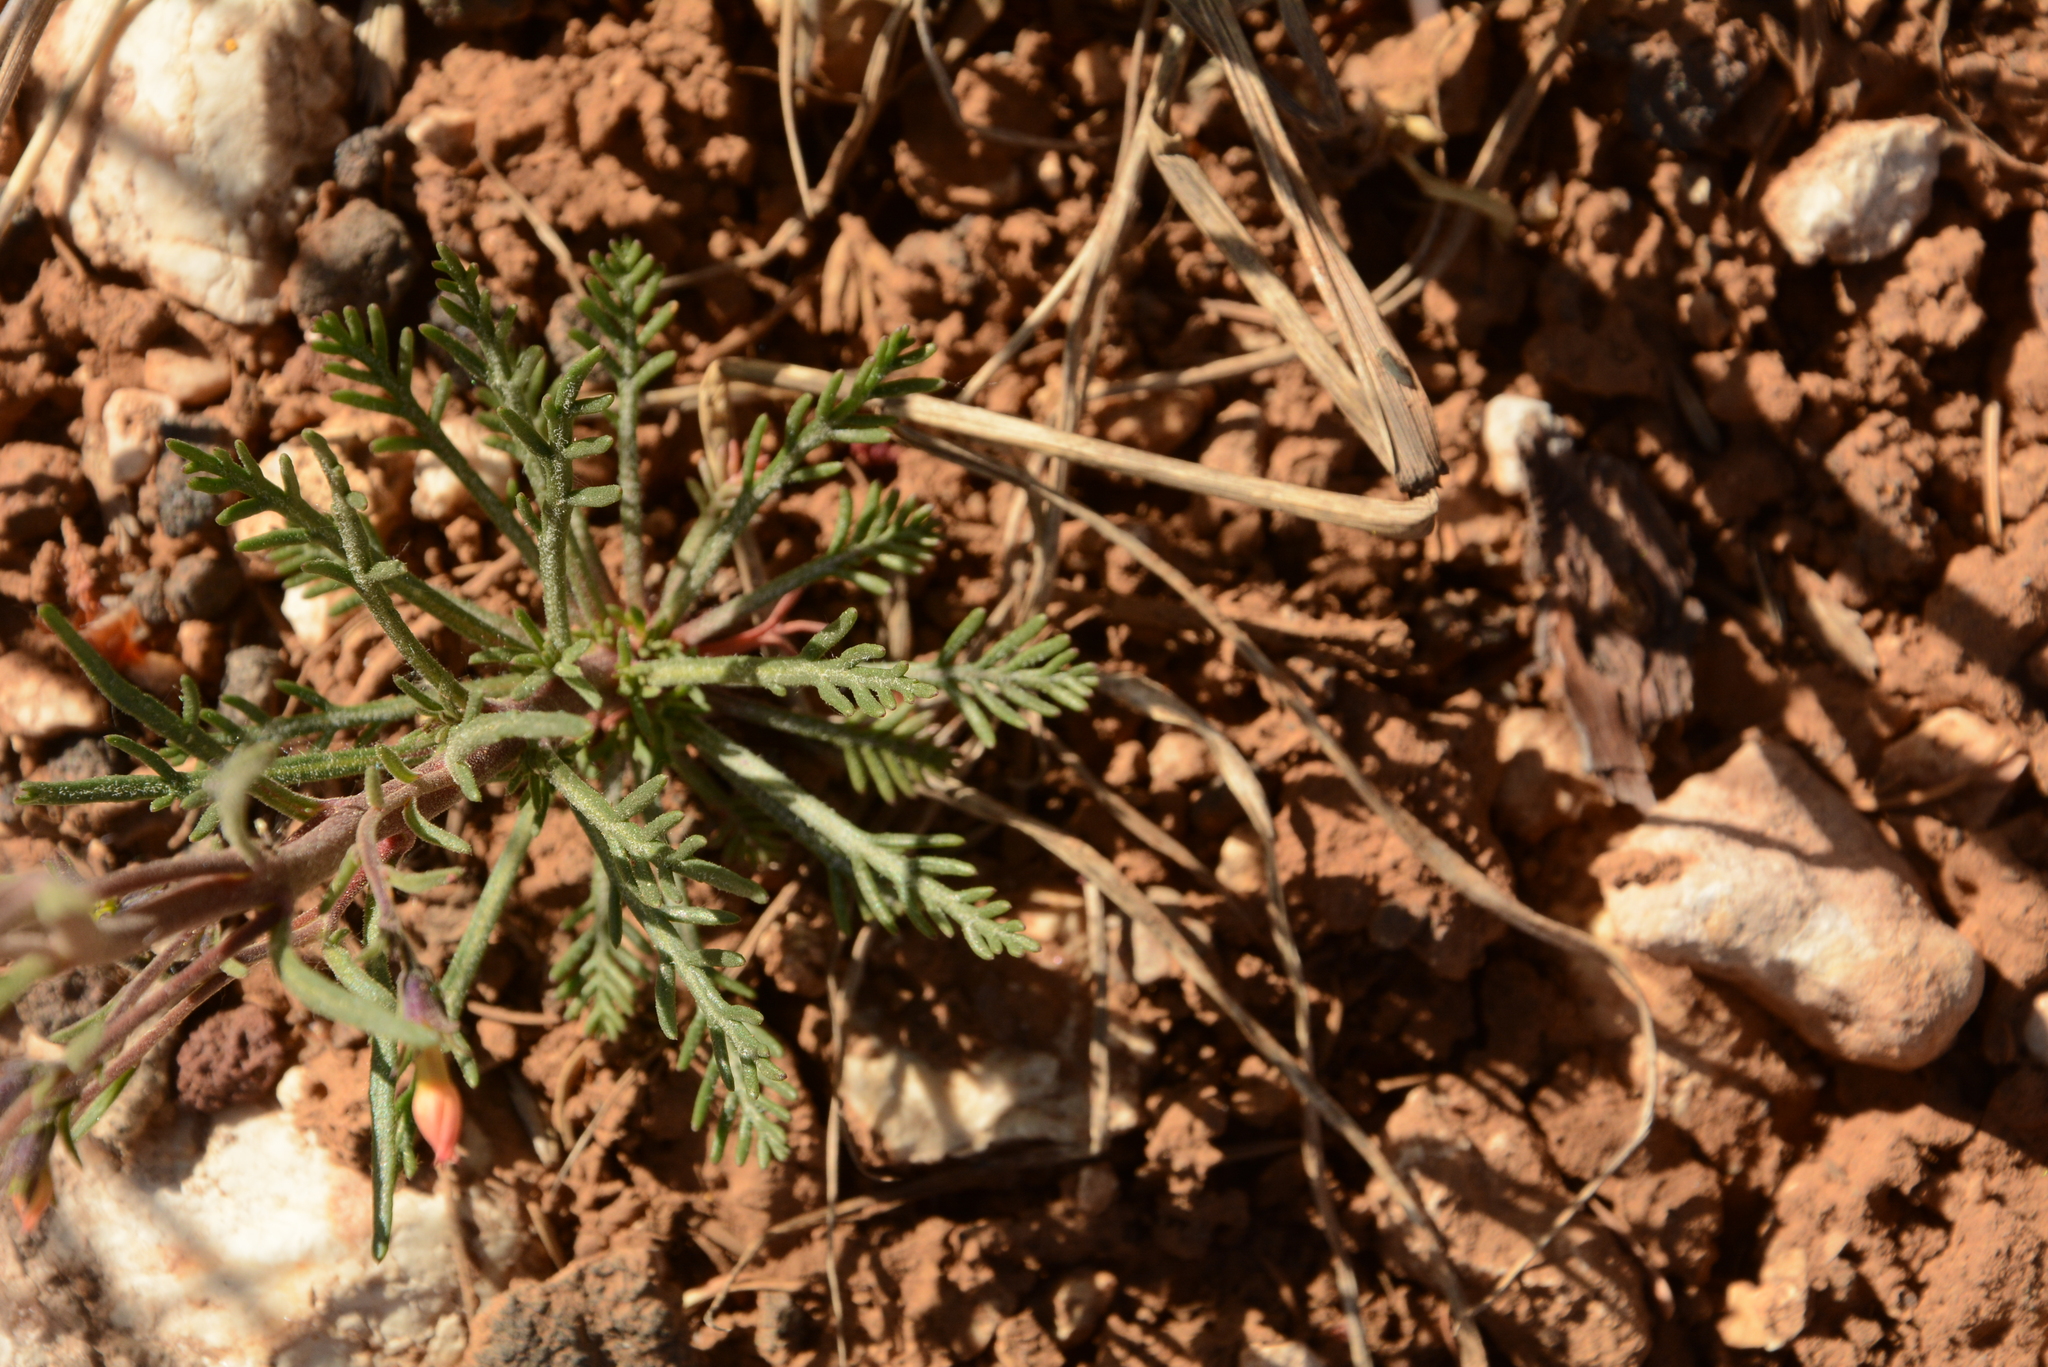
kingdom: Plantae
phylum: Tracheophyta
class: Magnoliopsida
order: Ericales
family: Polemoniaceae
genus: Ipomopsis
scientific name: Ipomopsis tenuituba
